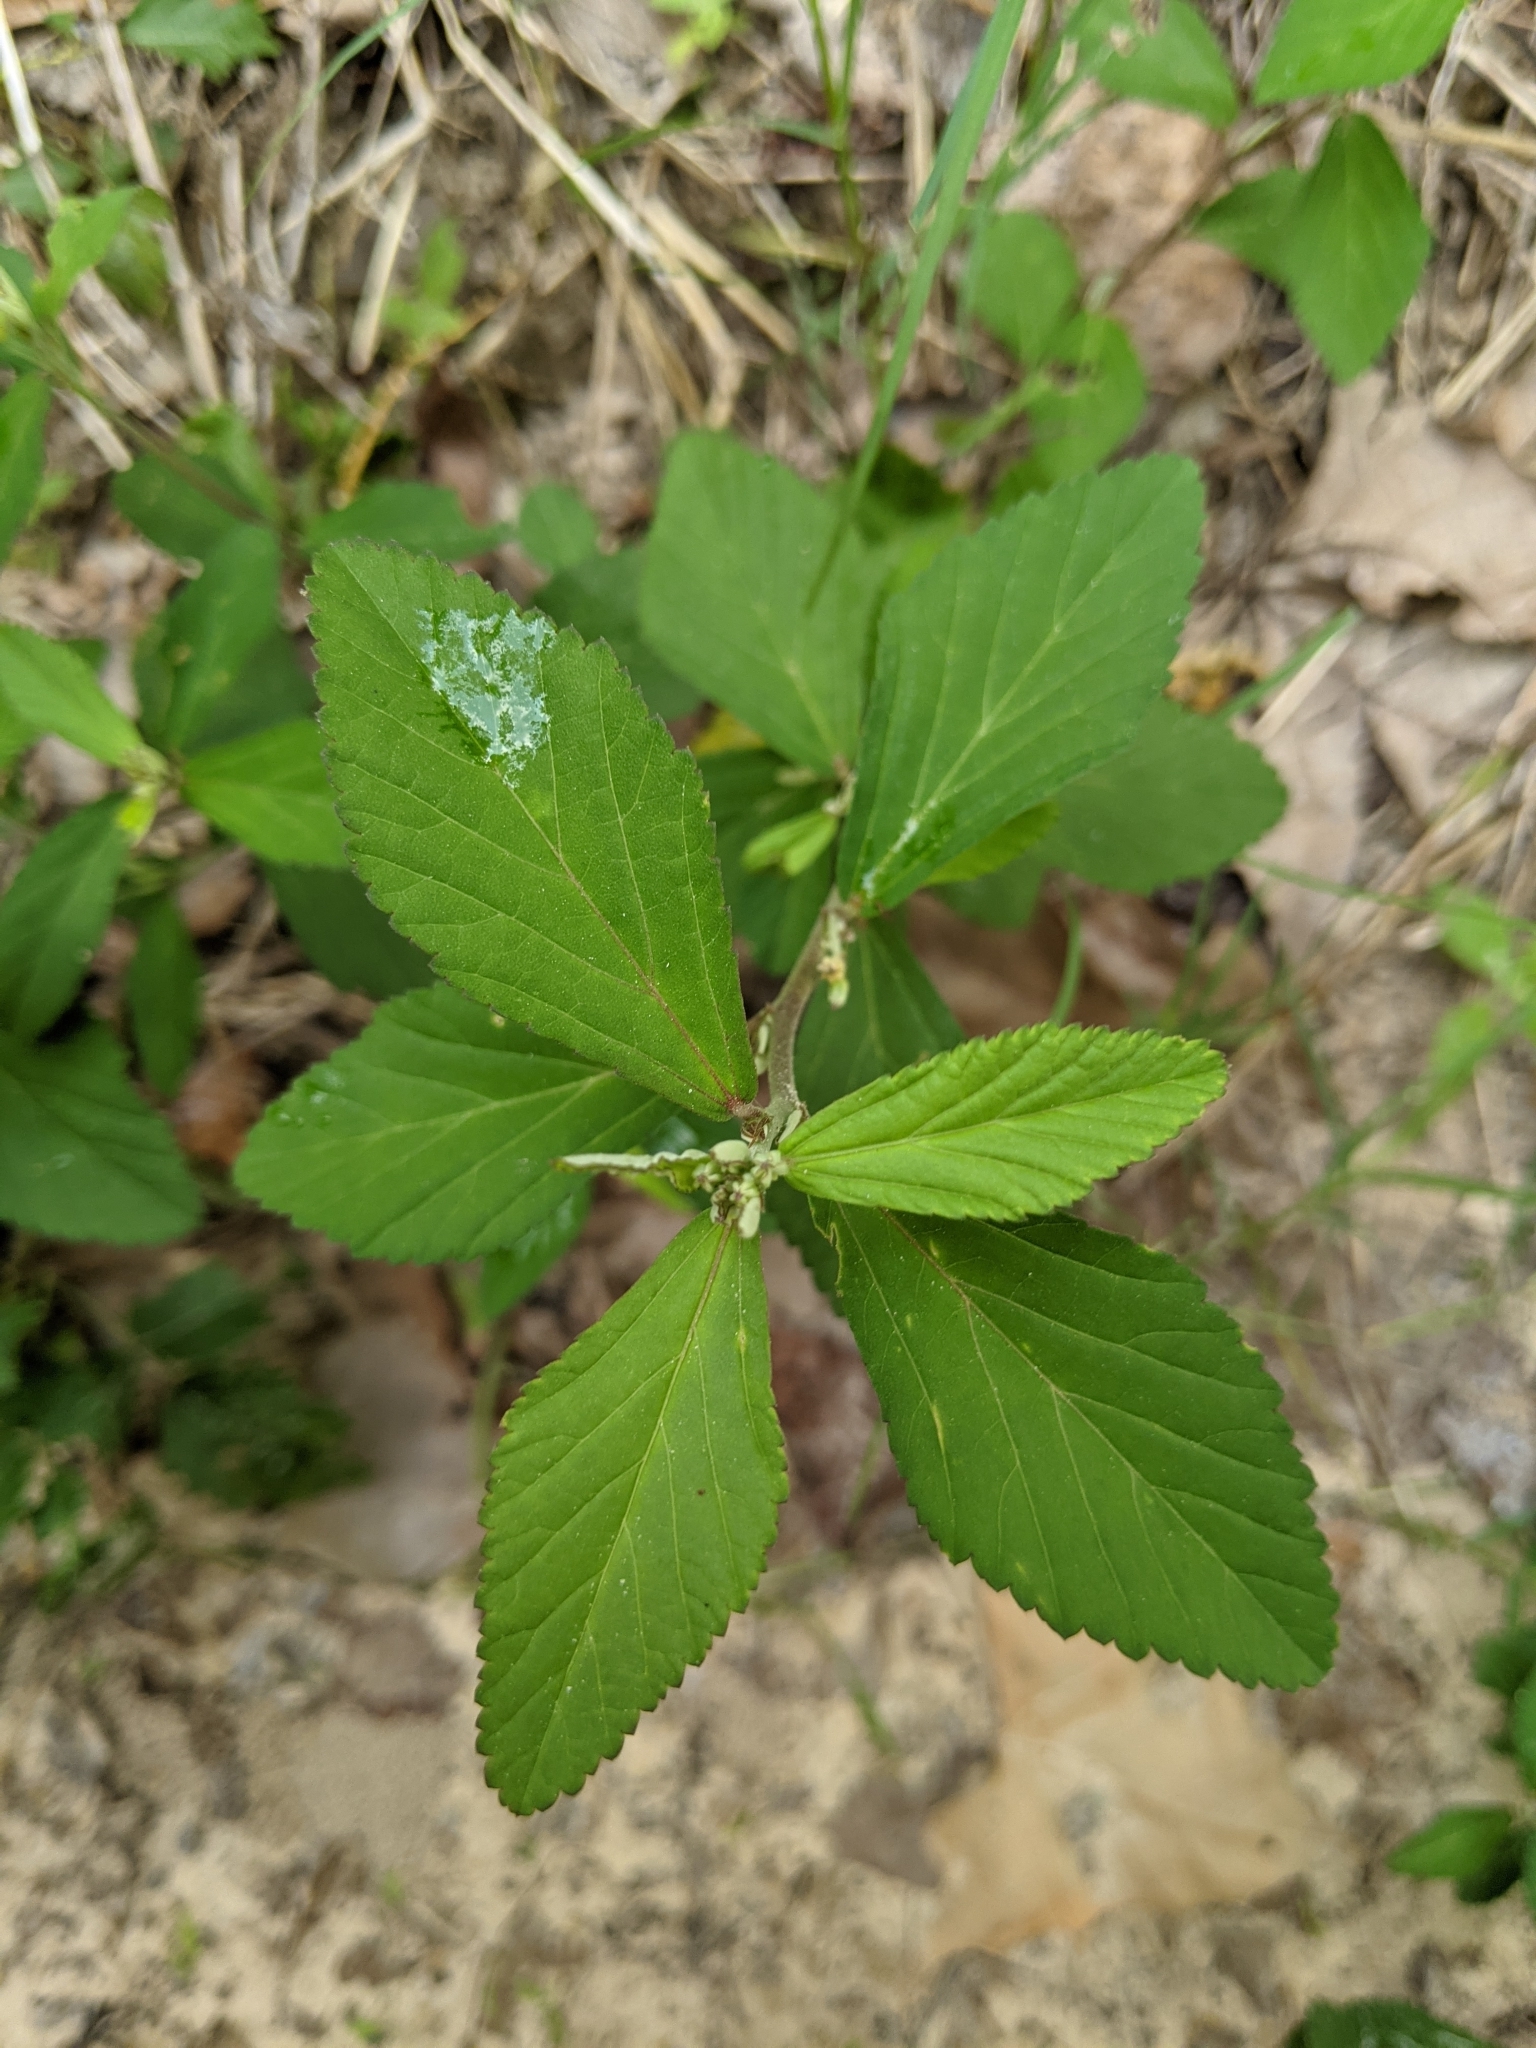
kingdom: Plantae
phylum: Tracheophyta
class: Magnoliopsida
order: Malvales
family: Malvaceae
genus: Sida
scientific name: Sida rhombifolia
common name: Queensland-hemp
